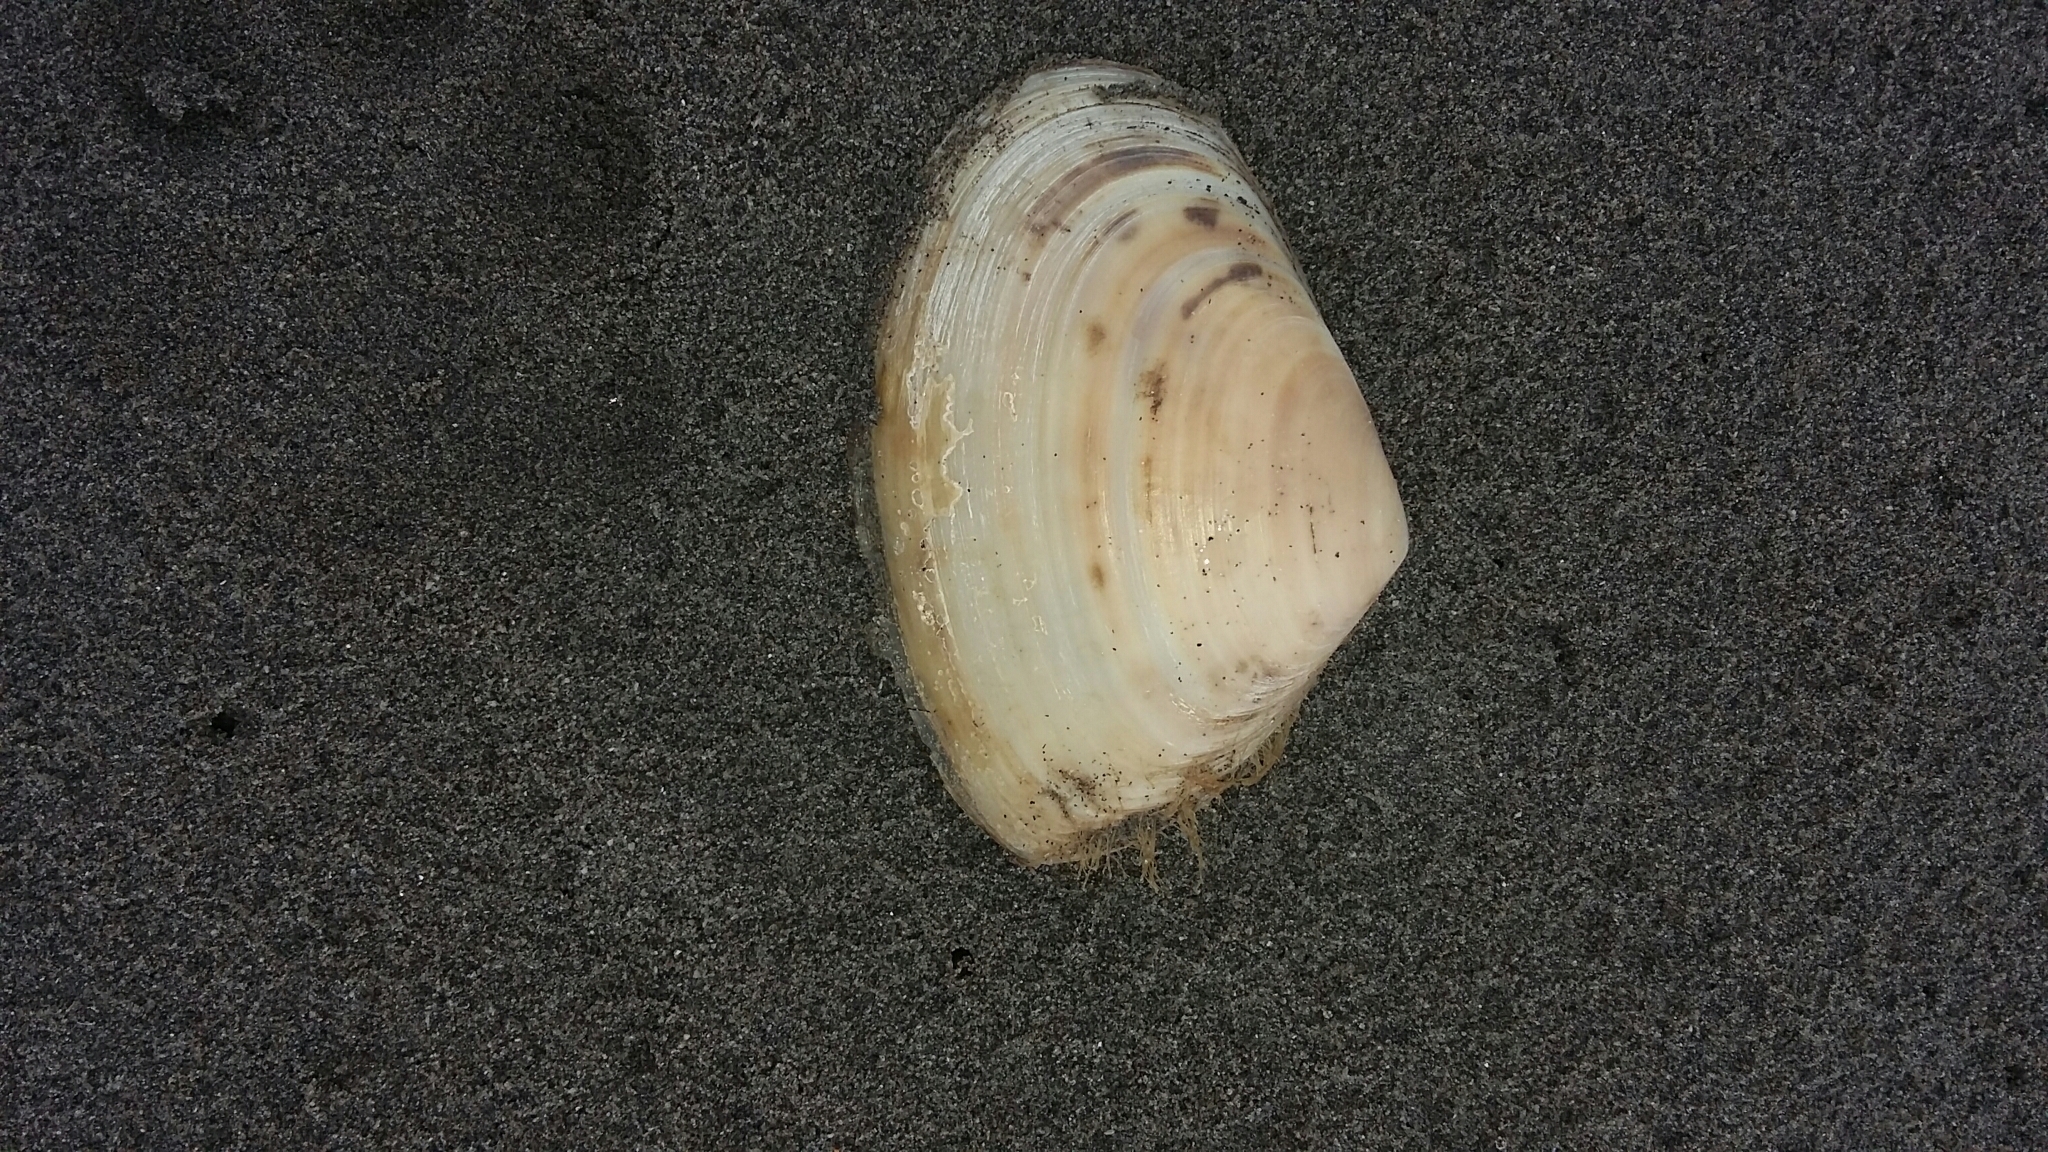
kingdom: Animalia
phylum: Mollusca
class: Bivalvia
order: Venerida
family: Mesodesmatidae
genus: Paphies
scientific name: Paphies donacina
